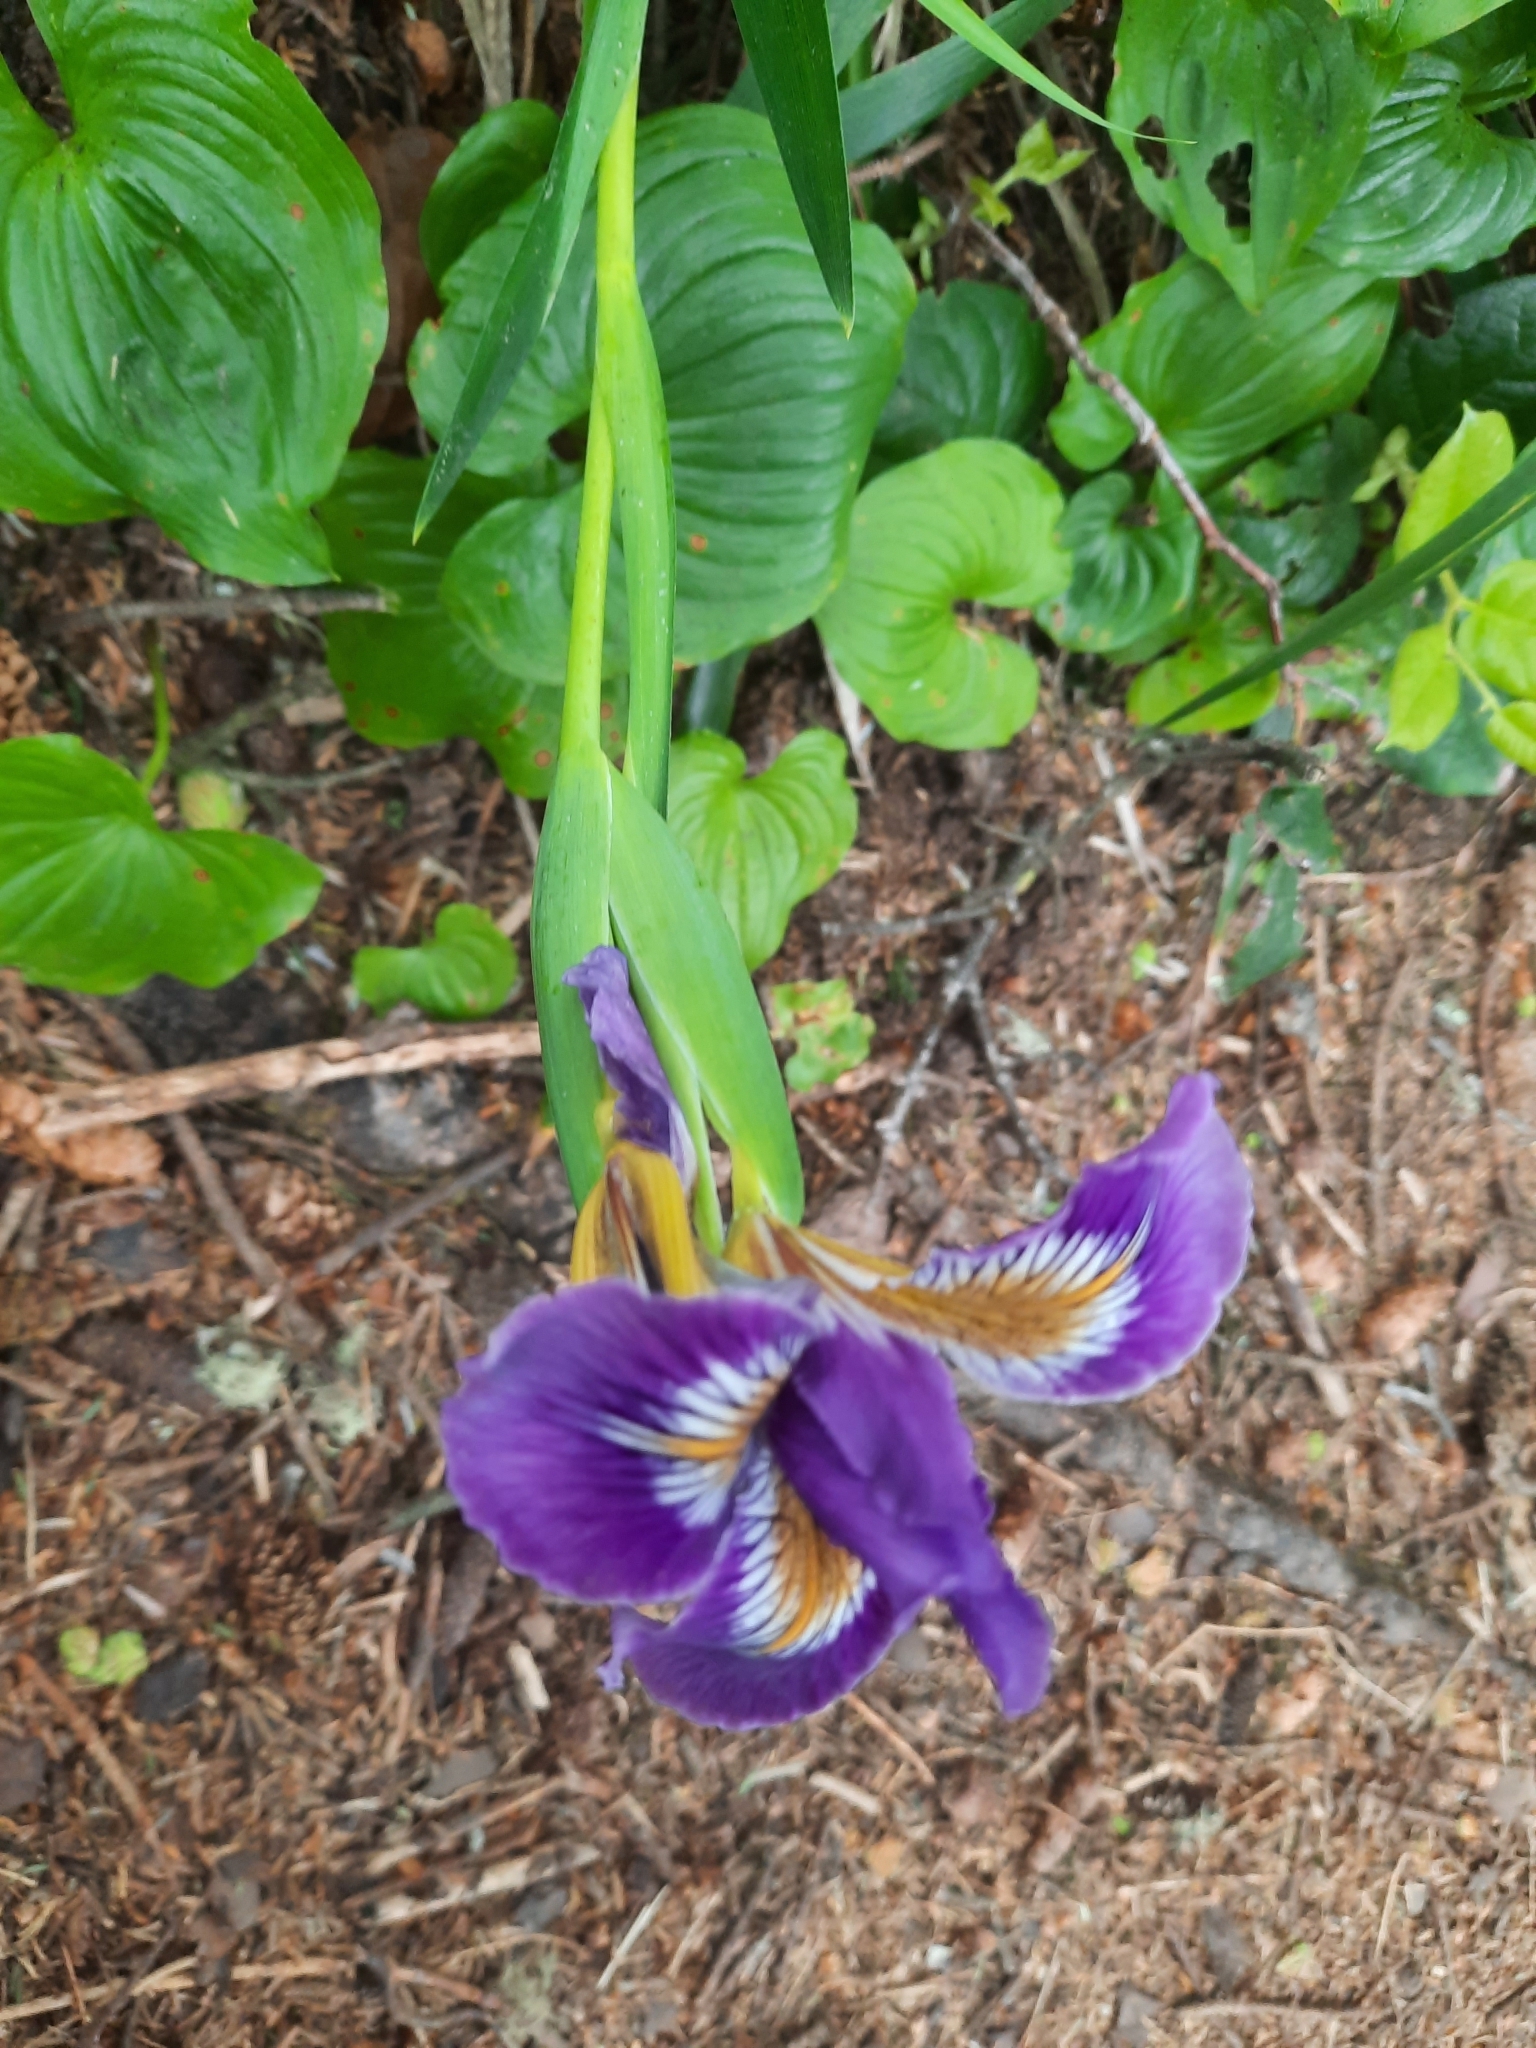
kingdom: Plantae
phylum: Tracheophyta
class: Liliopsida
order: Asparagales
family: Iridaceae
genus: Iris
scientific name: Iris douglasiana
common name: Marin iris
